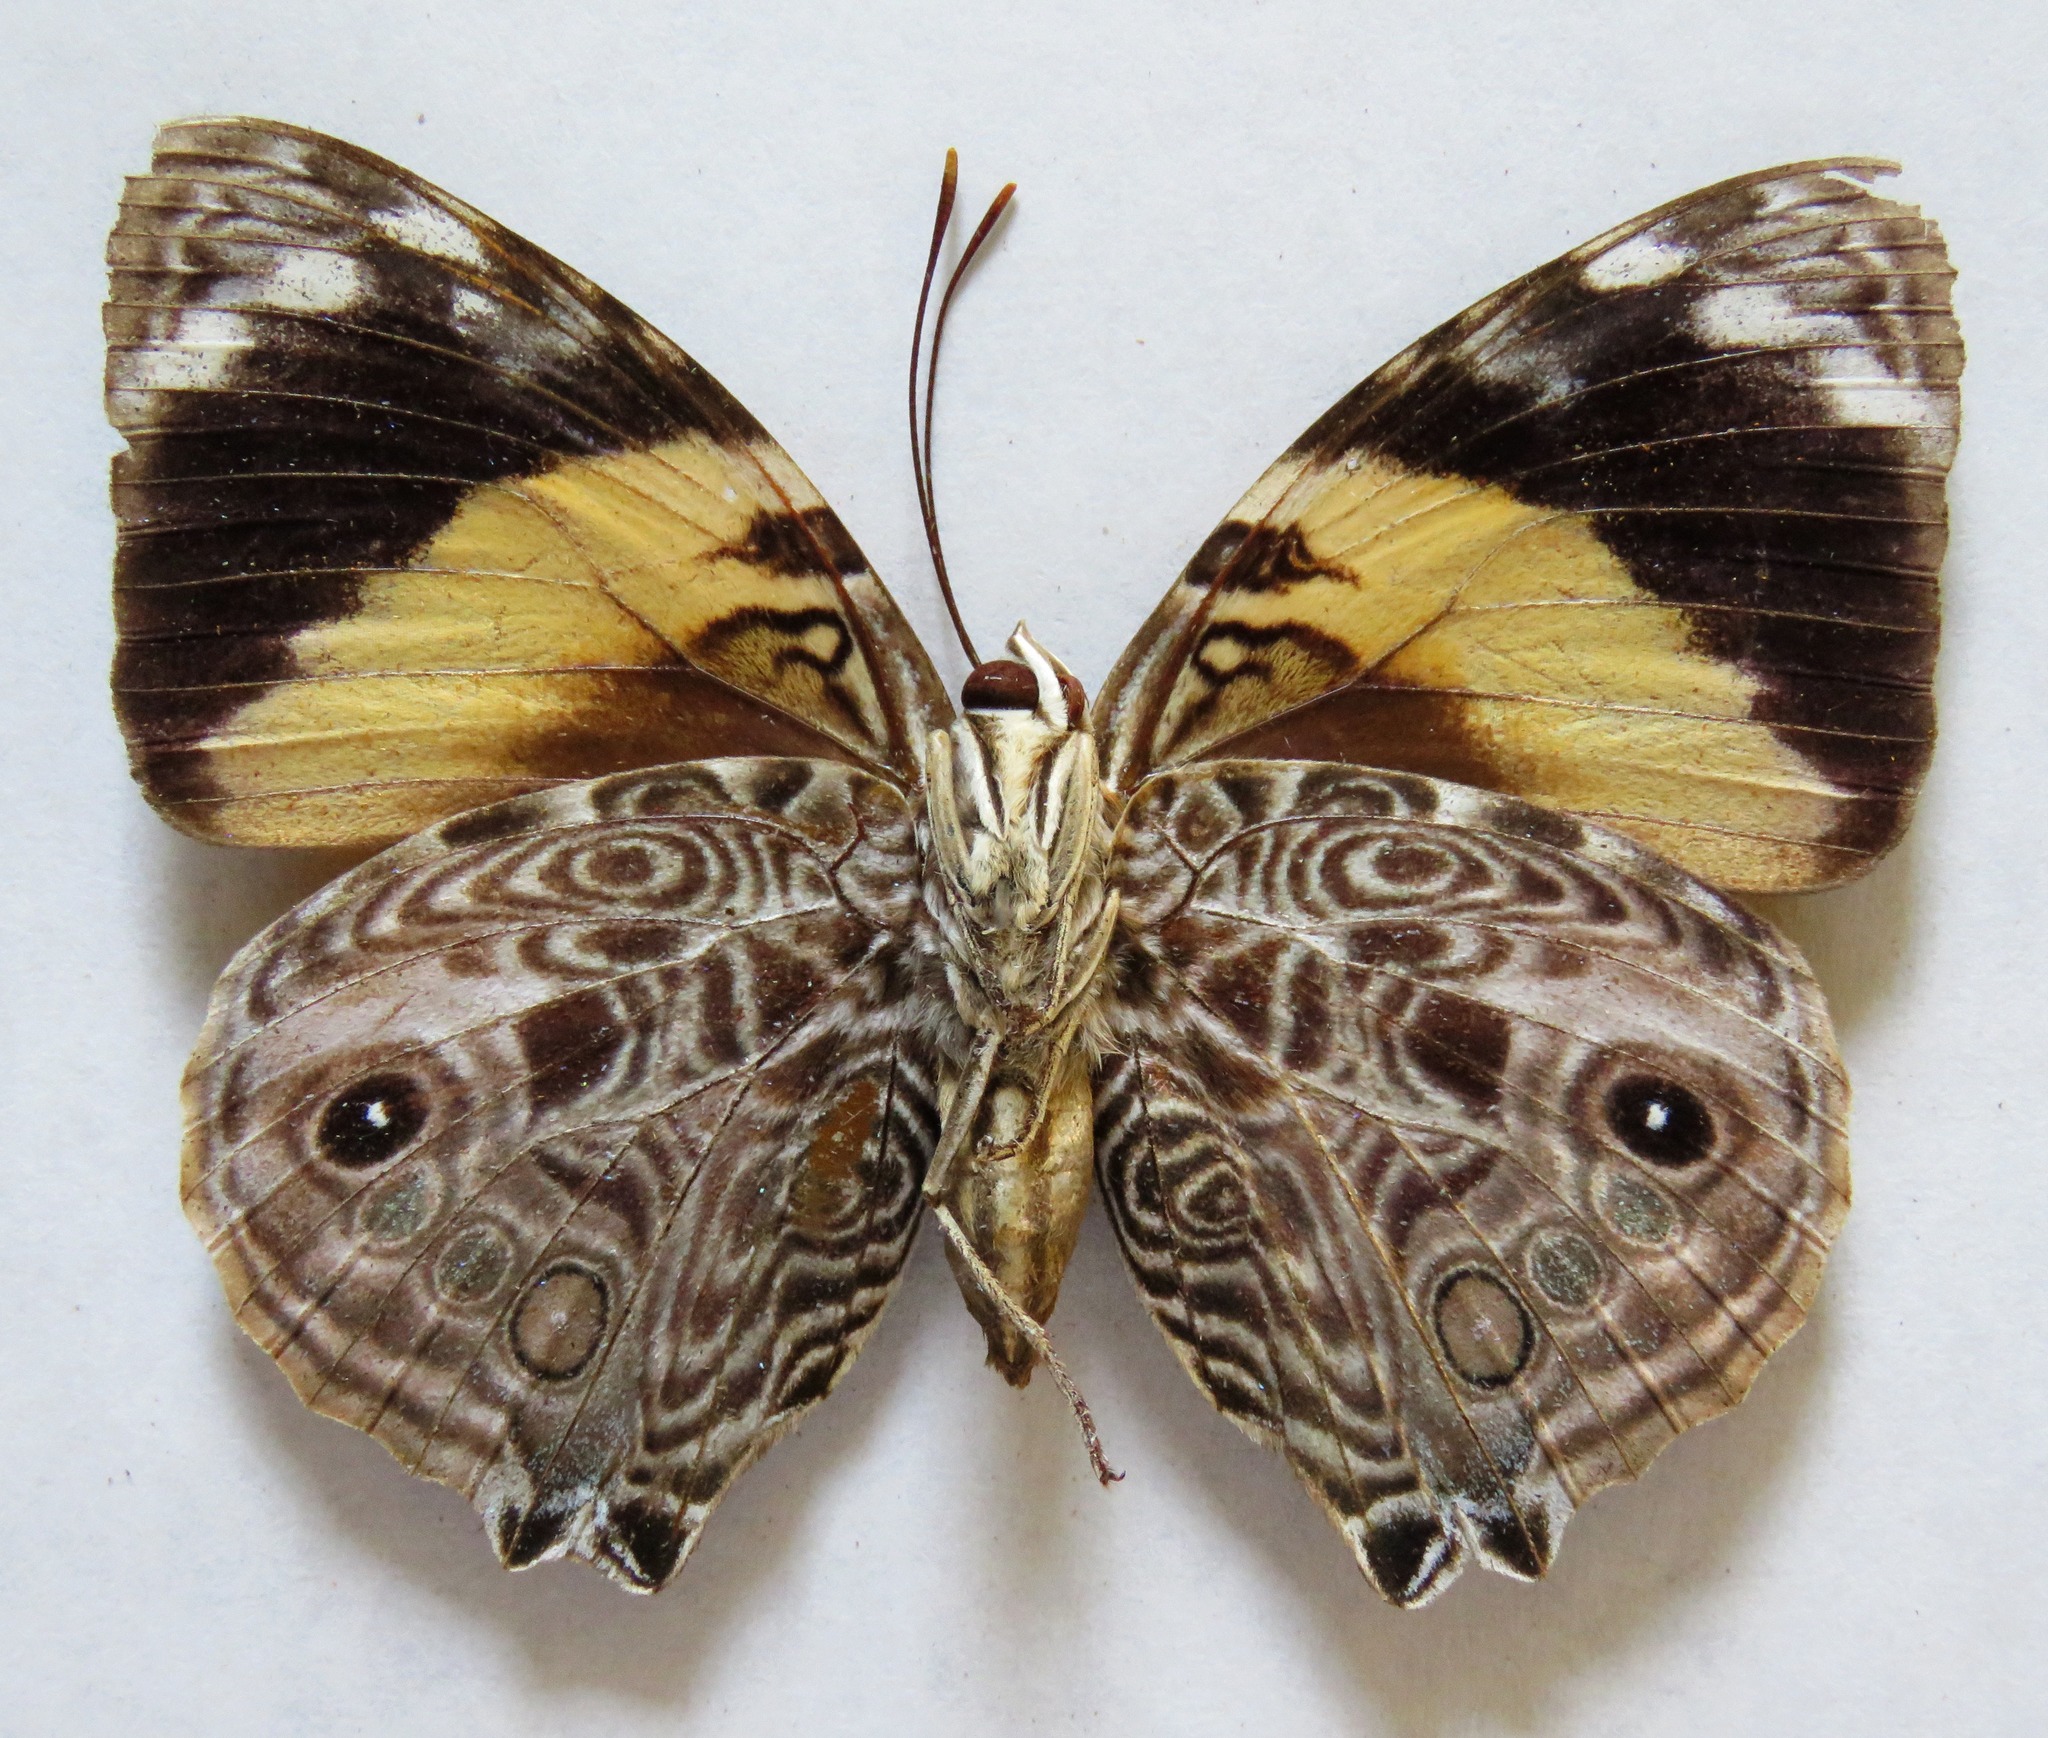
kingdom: Animalia
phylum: Arthropoda
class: Insecta
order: Lepidoptera
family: Nymphalidae
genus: Smyrna
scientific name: Smyrna blomfildia
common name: Blomfild's beauty
